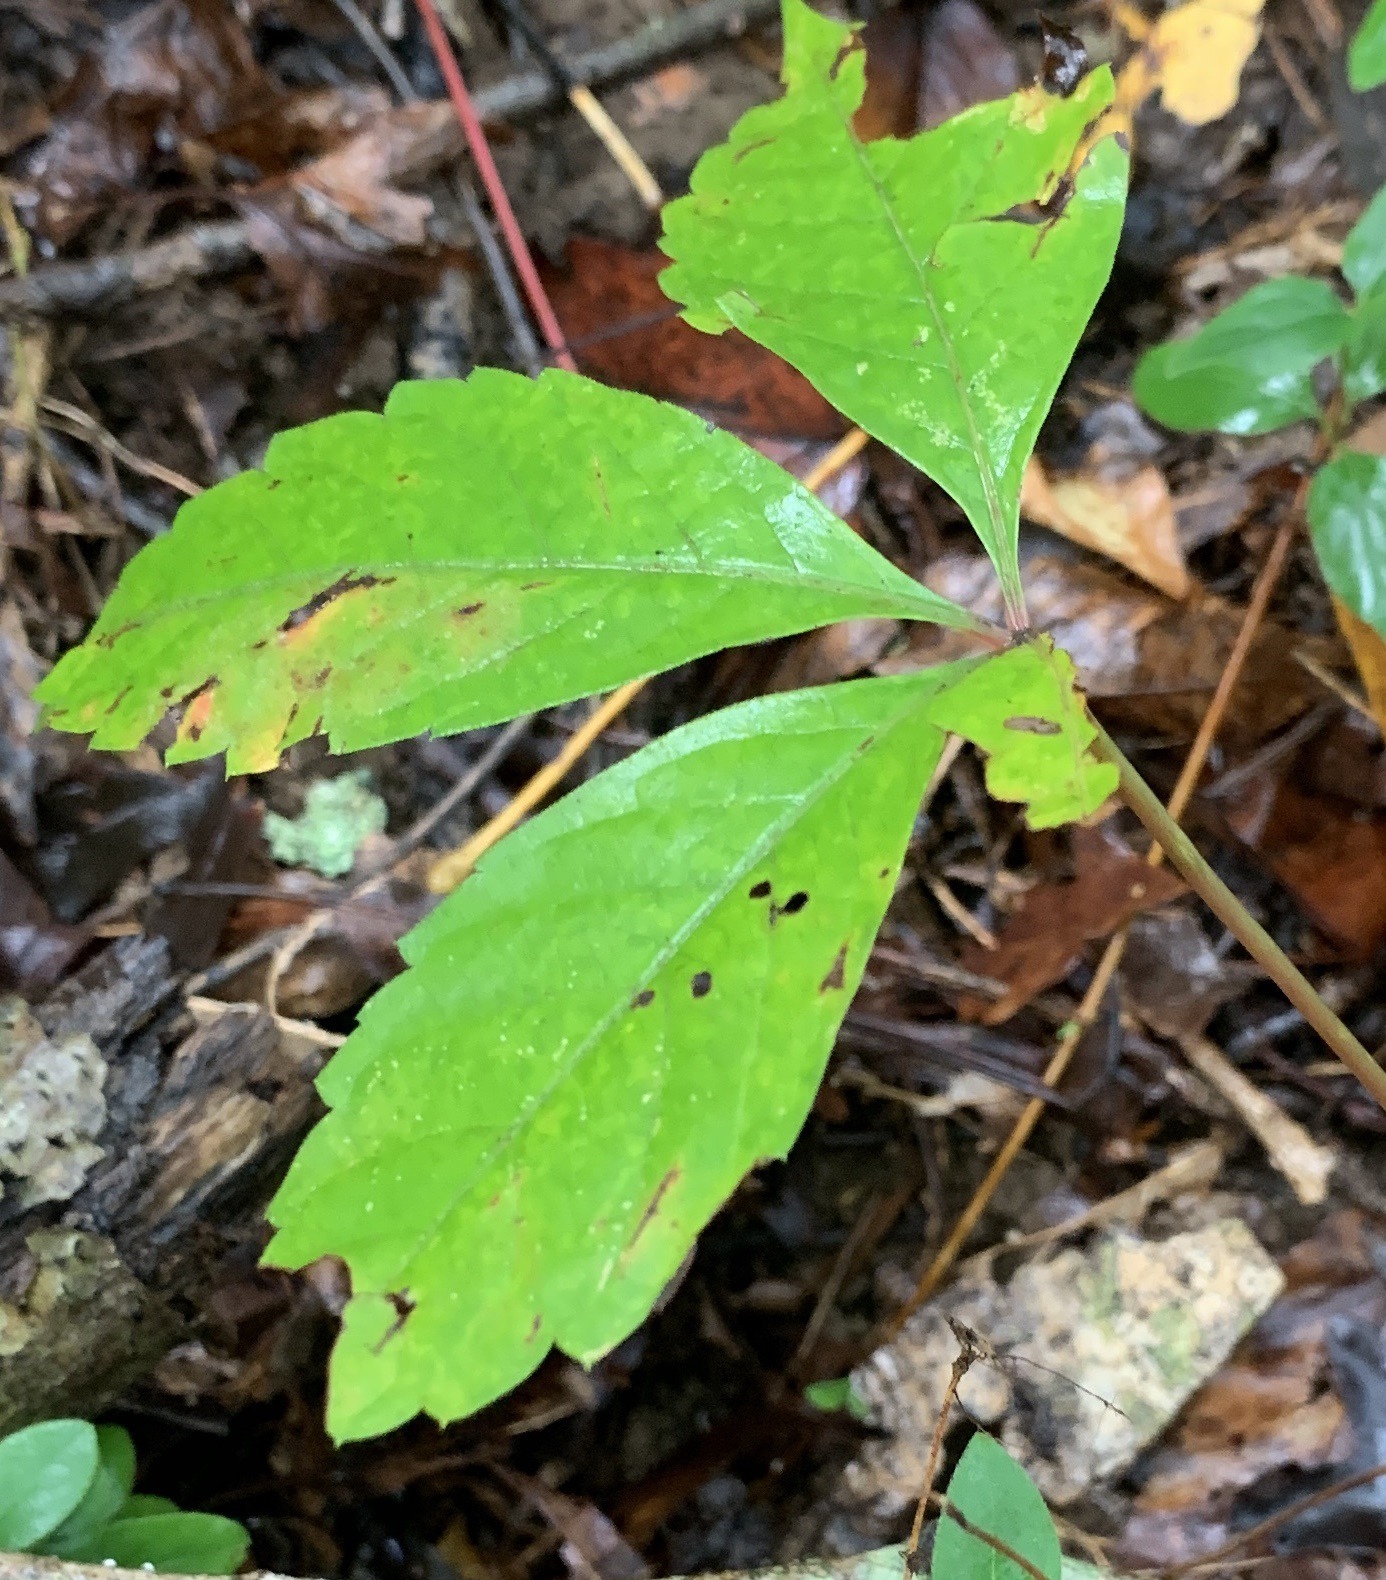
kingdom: Plantae
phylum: Tracheophyta
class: Magnoliopsida
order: Vitales
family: Vitaceae
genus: Parthenocissus
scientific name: Parthenocissus quinquefolia
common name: Virginia-creeper
